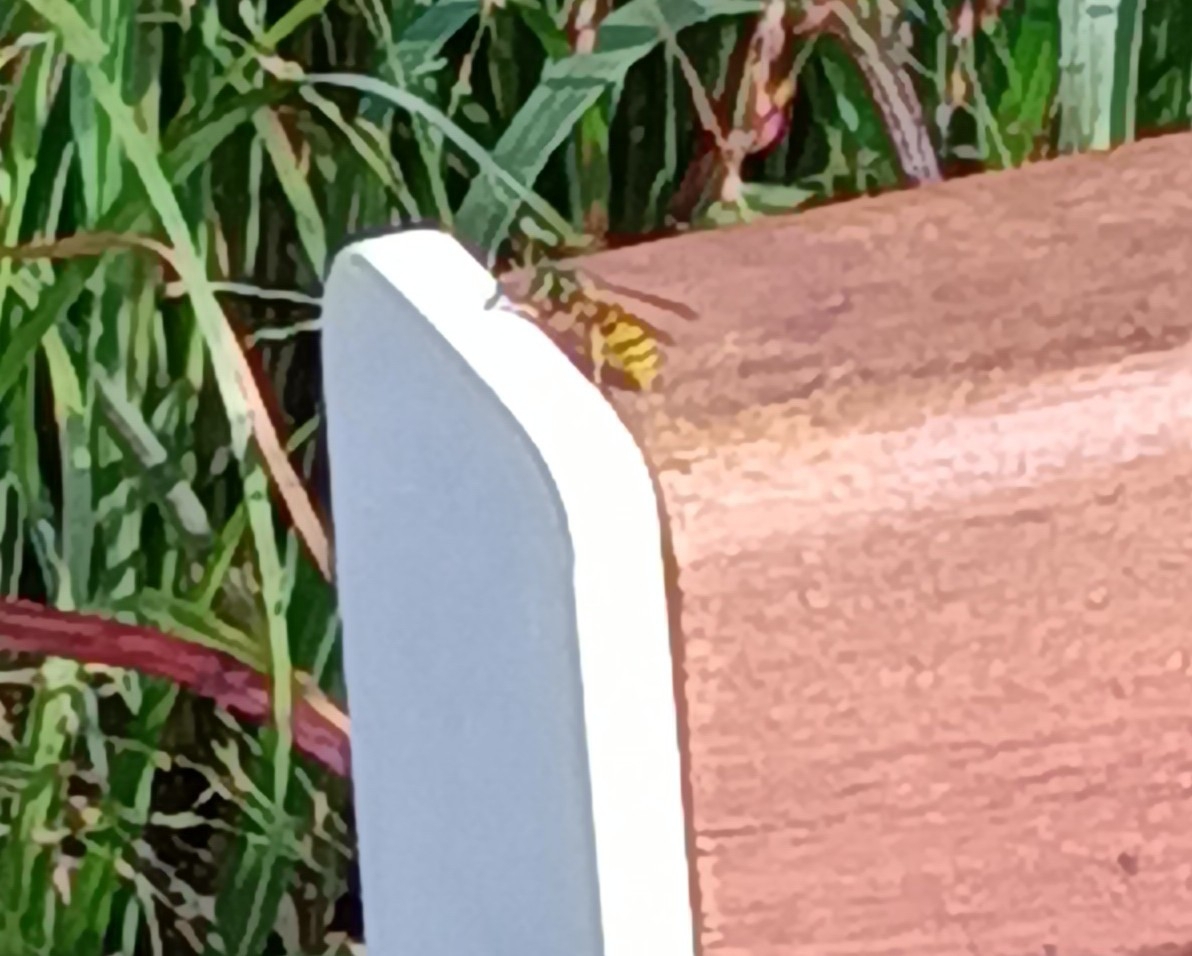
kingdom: Animalia
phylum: Arthropoda
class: Insecta
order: Hymenoptera
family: Vespidae
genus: Vespula
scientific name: Vespula germanica
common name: German wasp
